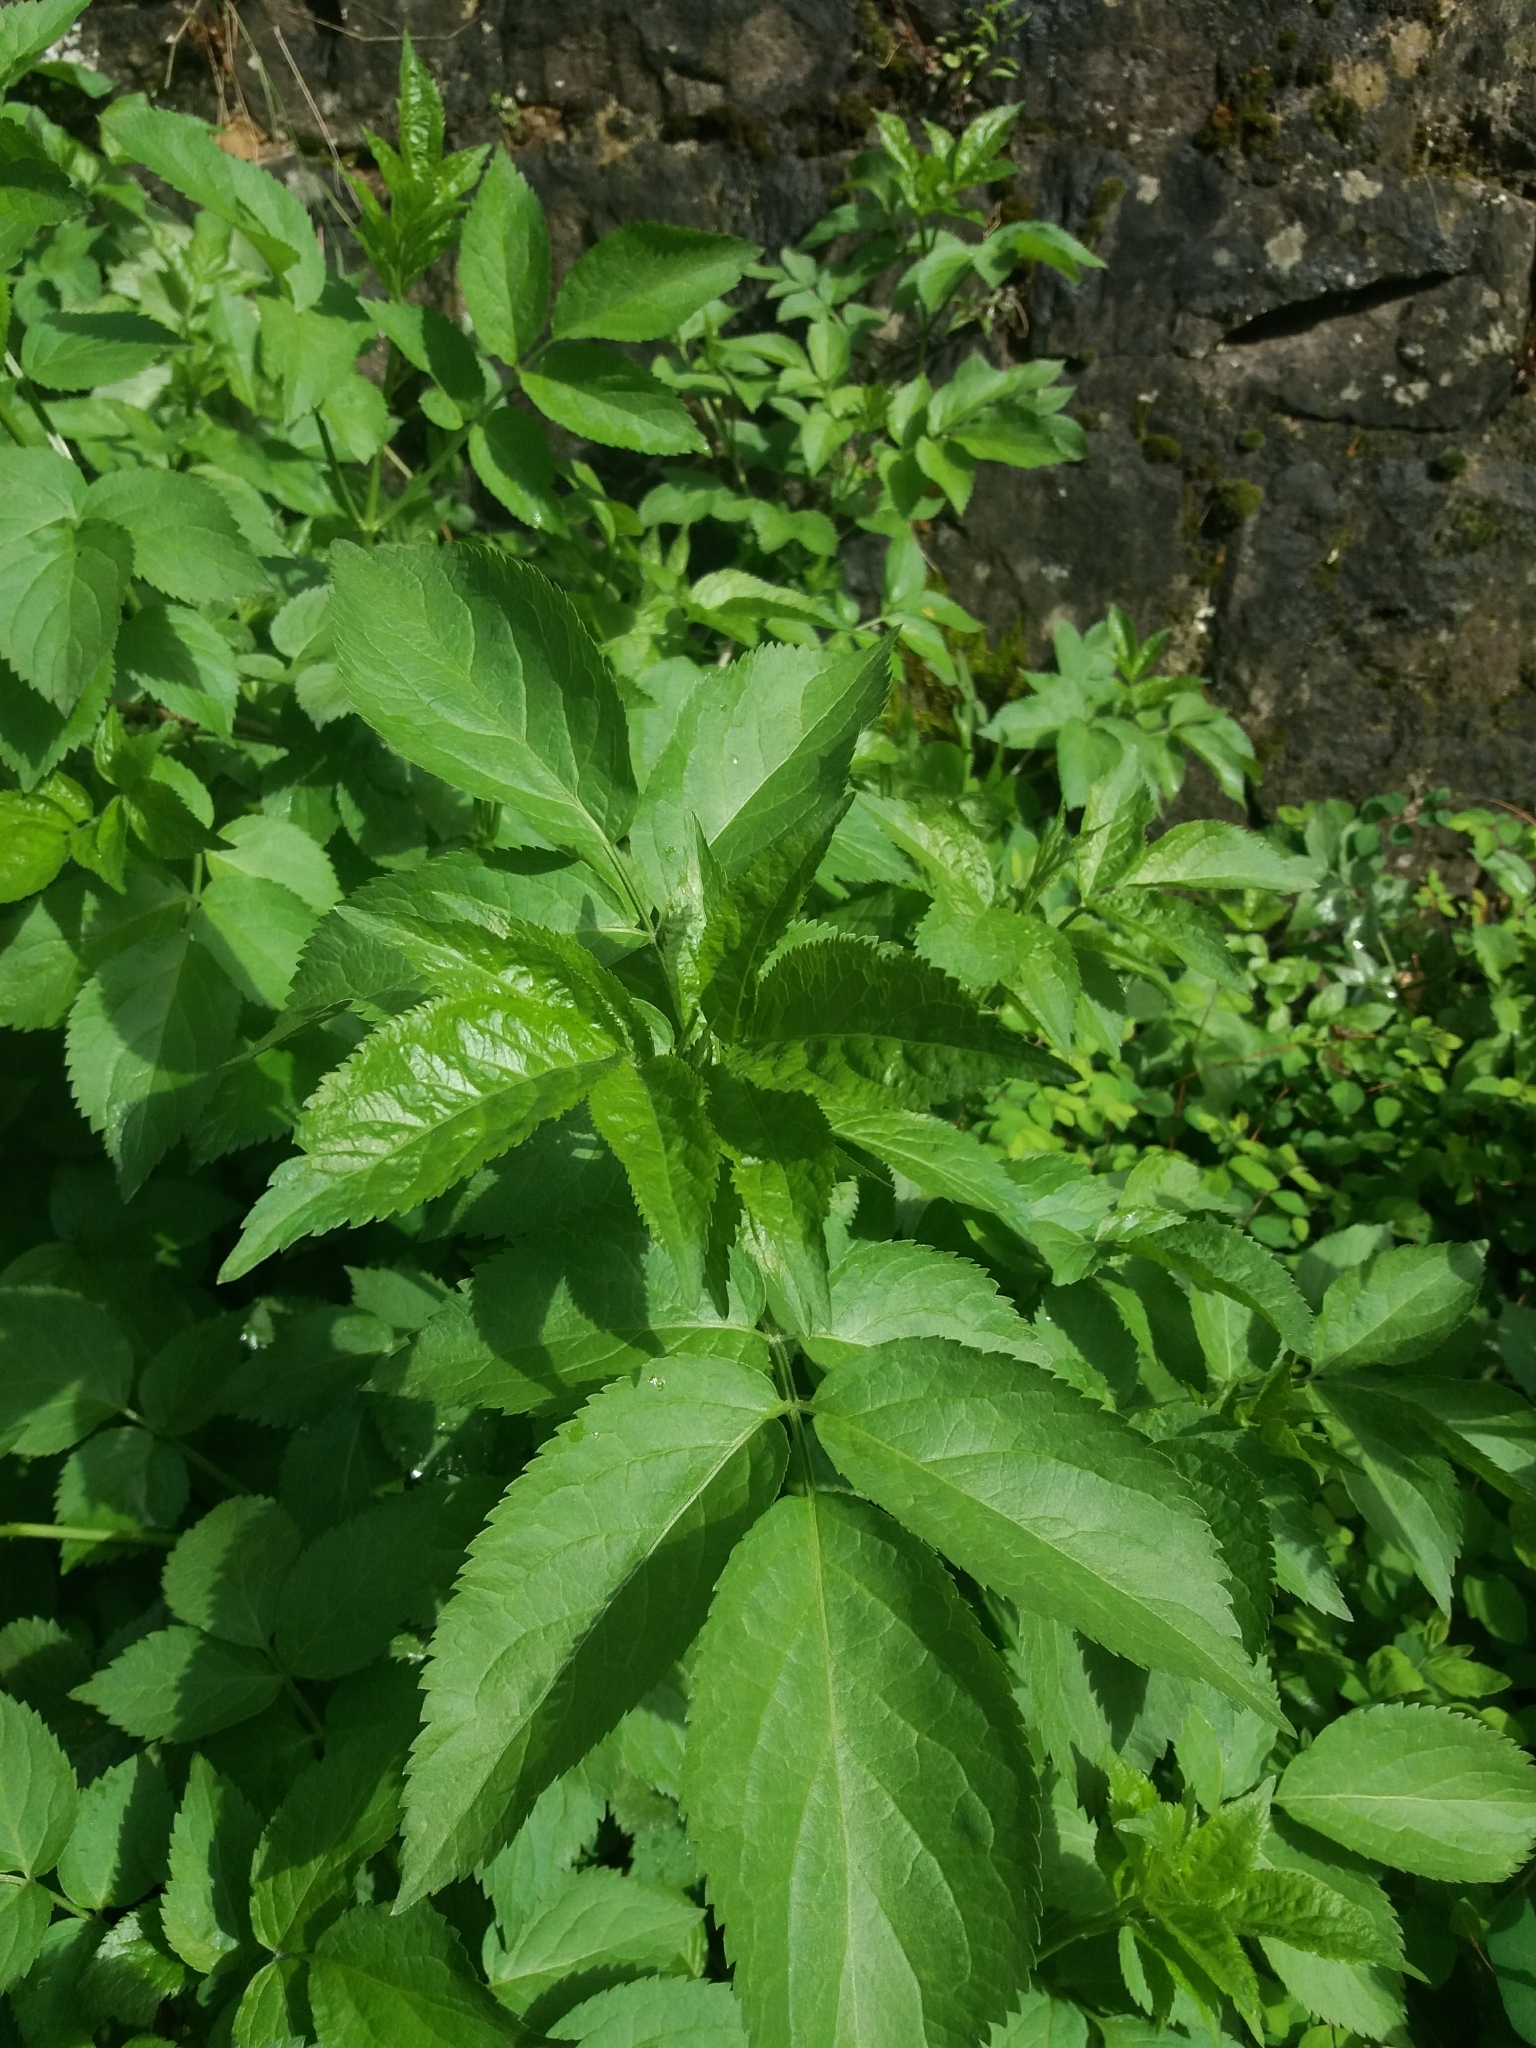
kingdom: Plantae
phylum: Tracheophyta
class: Magnoliopsida
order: Dipsacales
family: Viburnaceae
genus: Sambucus
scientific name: Sambucus nigra
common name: Elder
